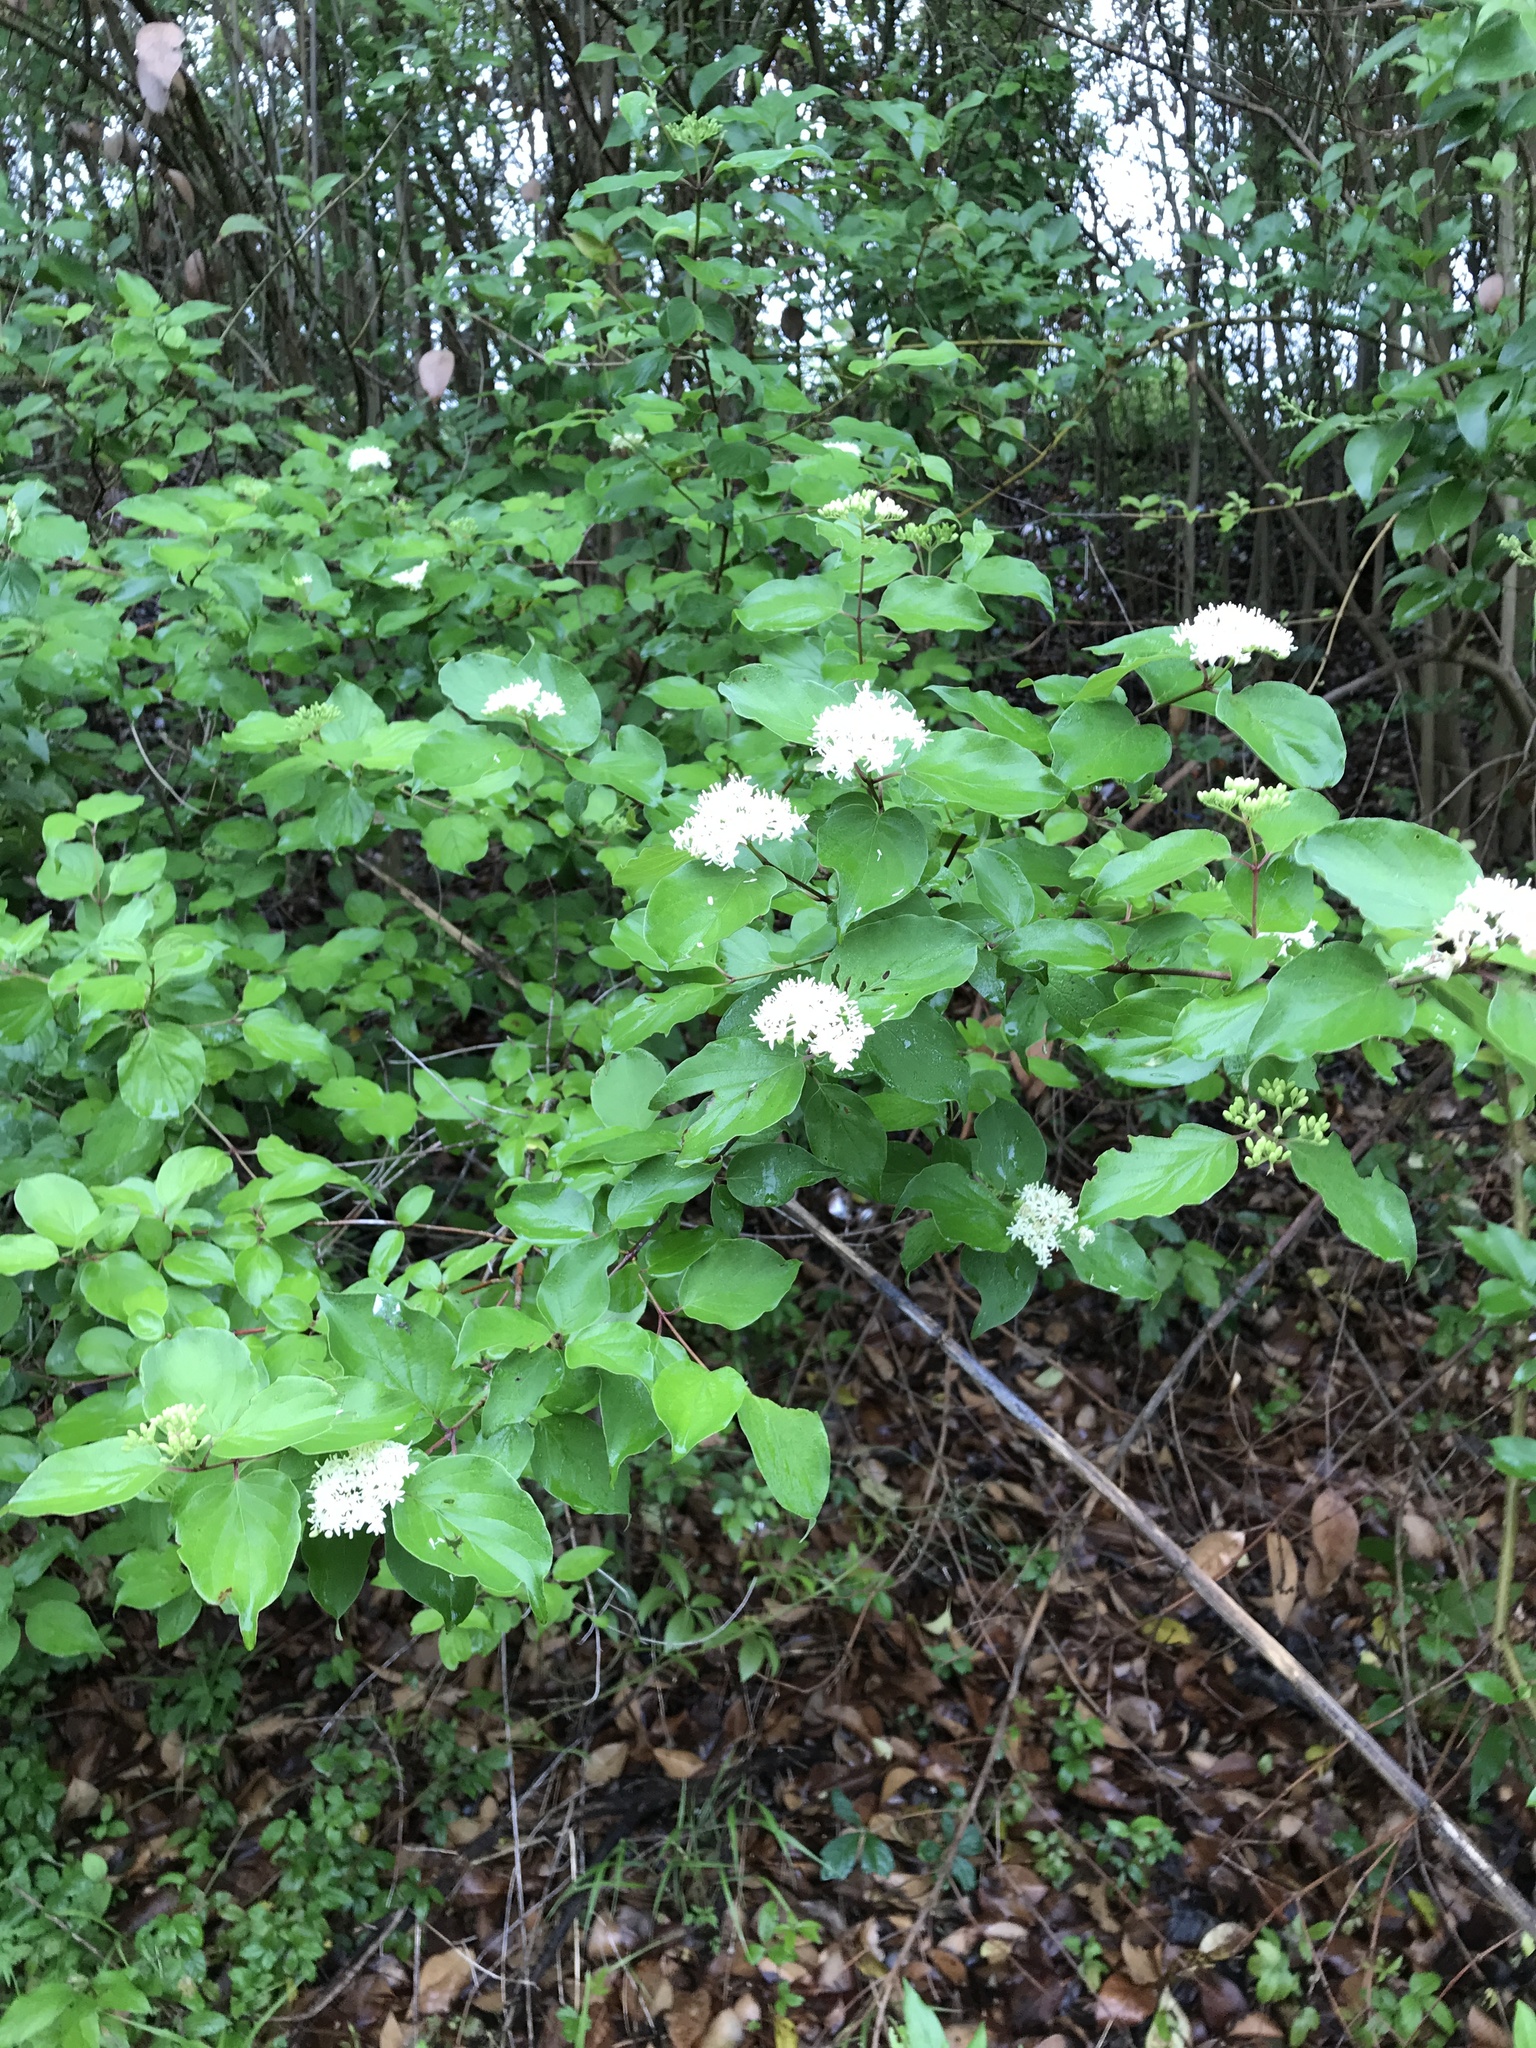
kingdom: Plantae
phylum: Tracheophyta
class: Magnoliopsida
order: Cornales
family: Cornaceae
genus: Cornus
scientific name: Cornus drummondii
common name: Rough-leaf dogwood
